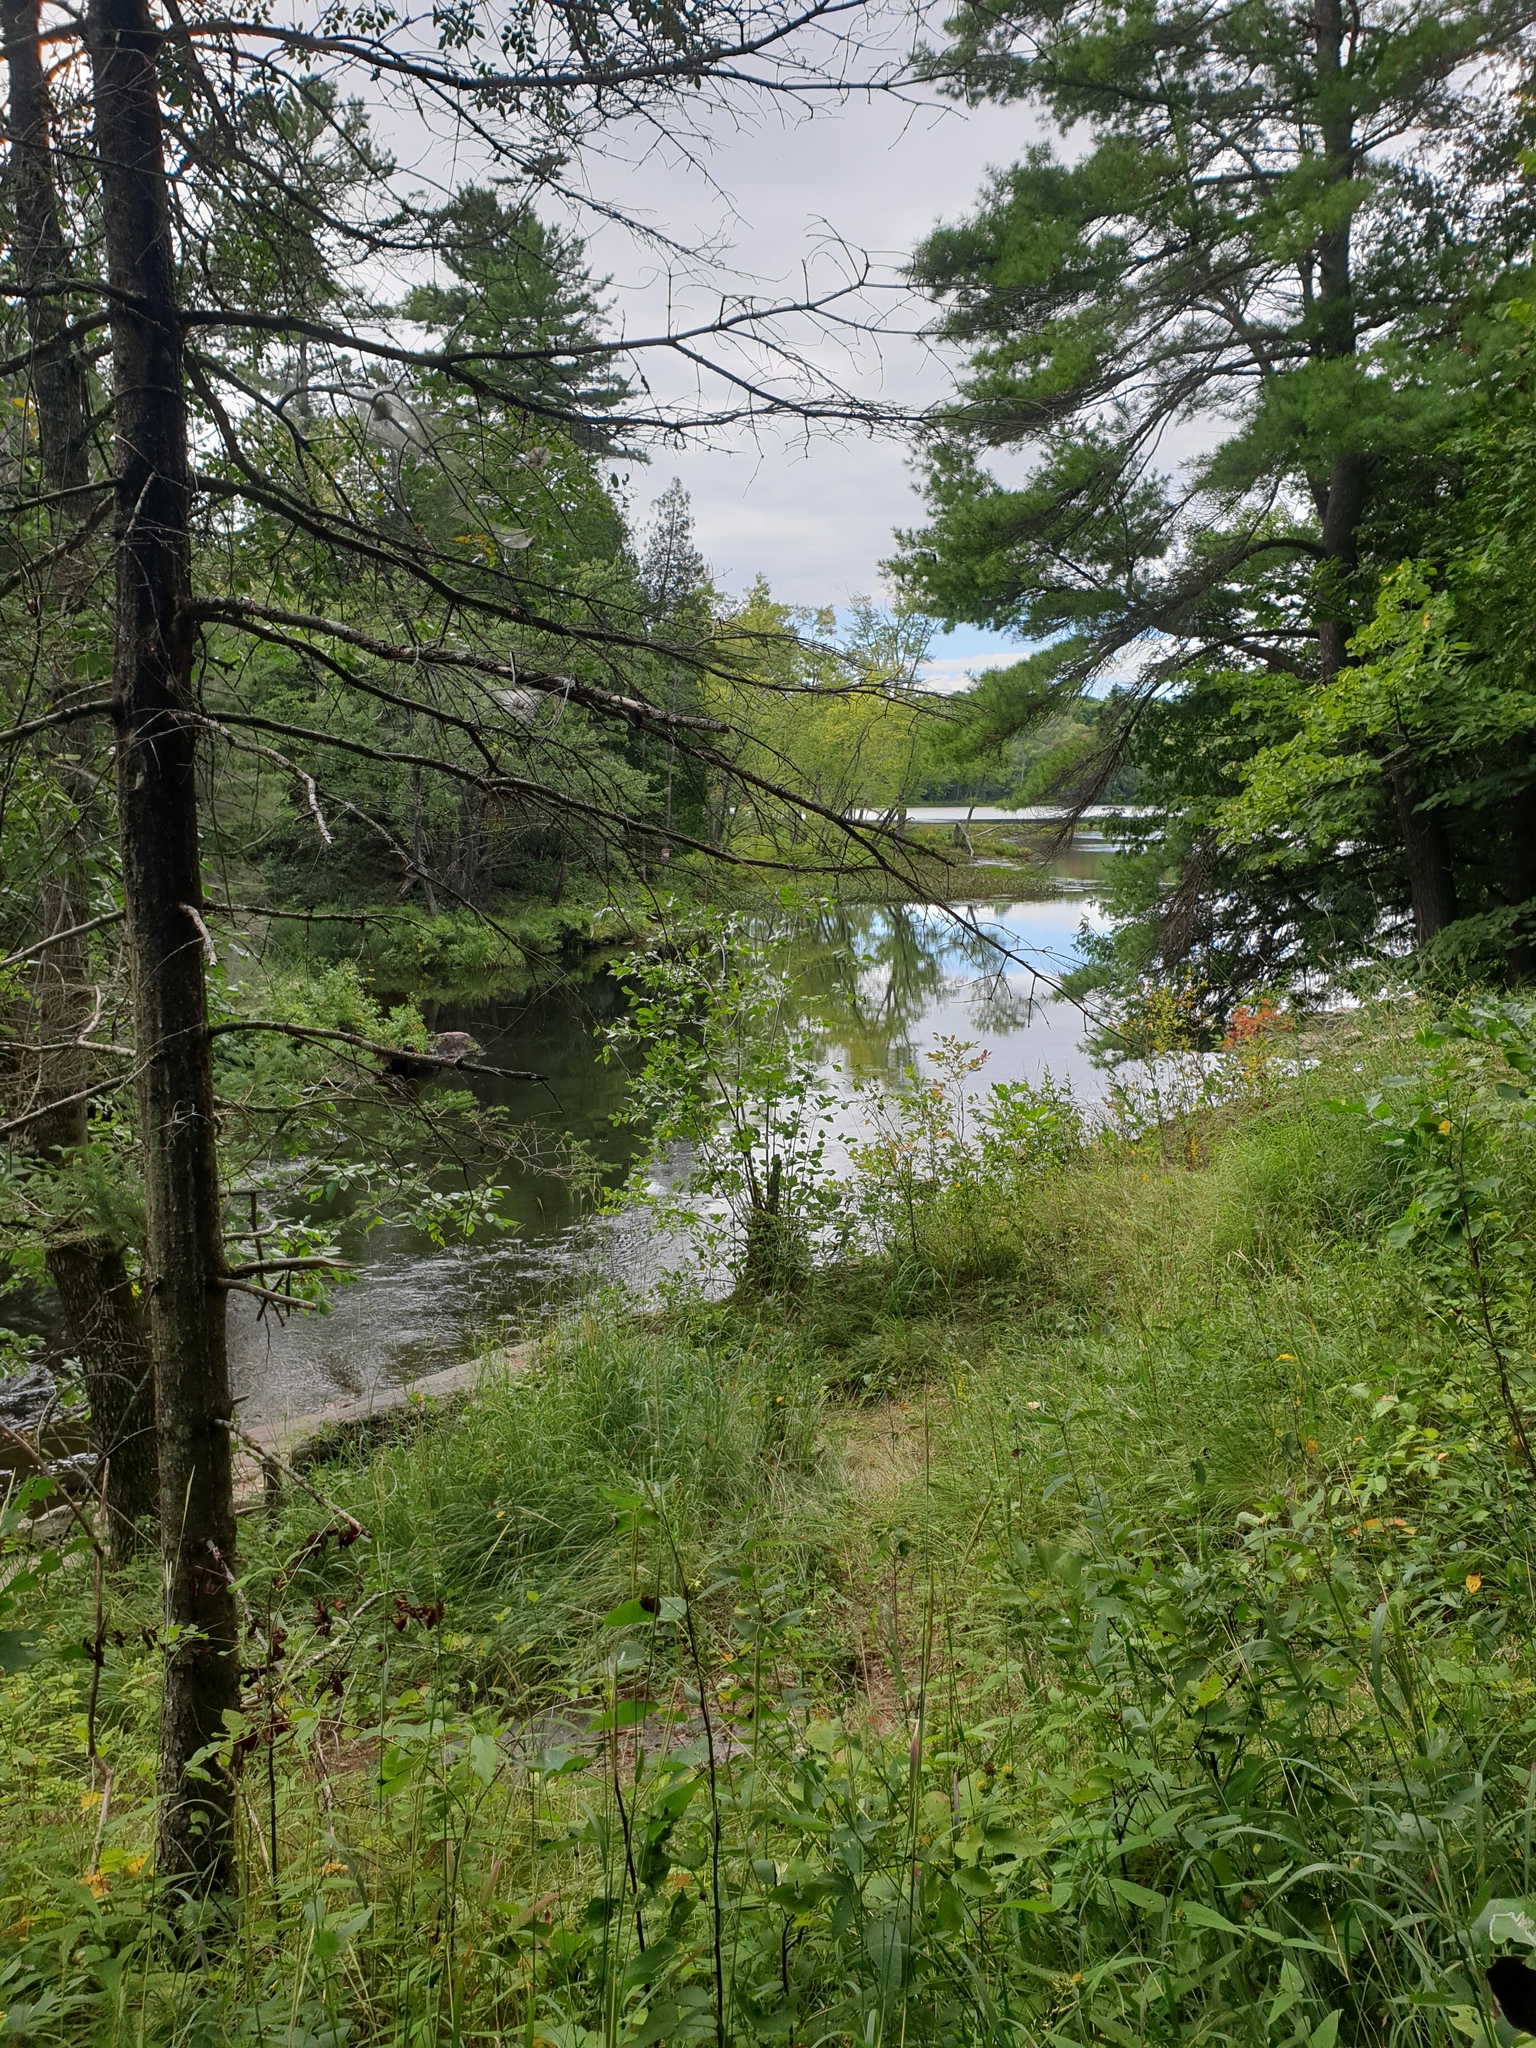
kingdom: Plantae
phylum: Tracheophyta
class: Magnoliopsida
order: Fagales
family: Fagaceae
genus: Quercus
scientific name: Quercus alba
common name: White oak
